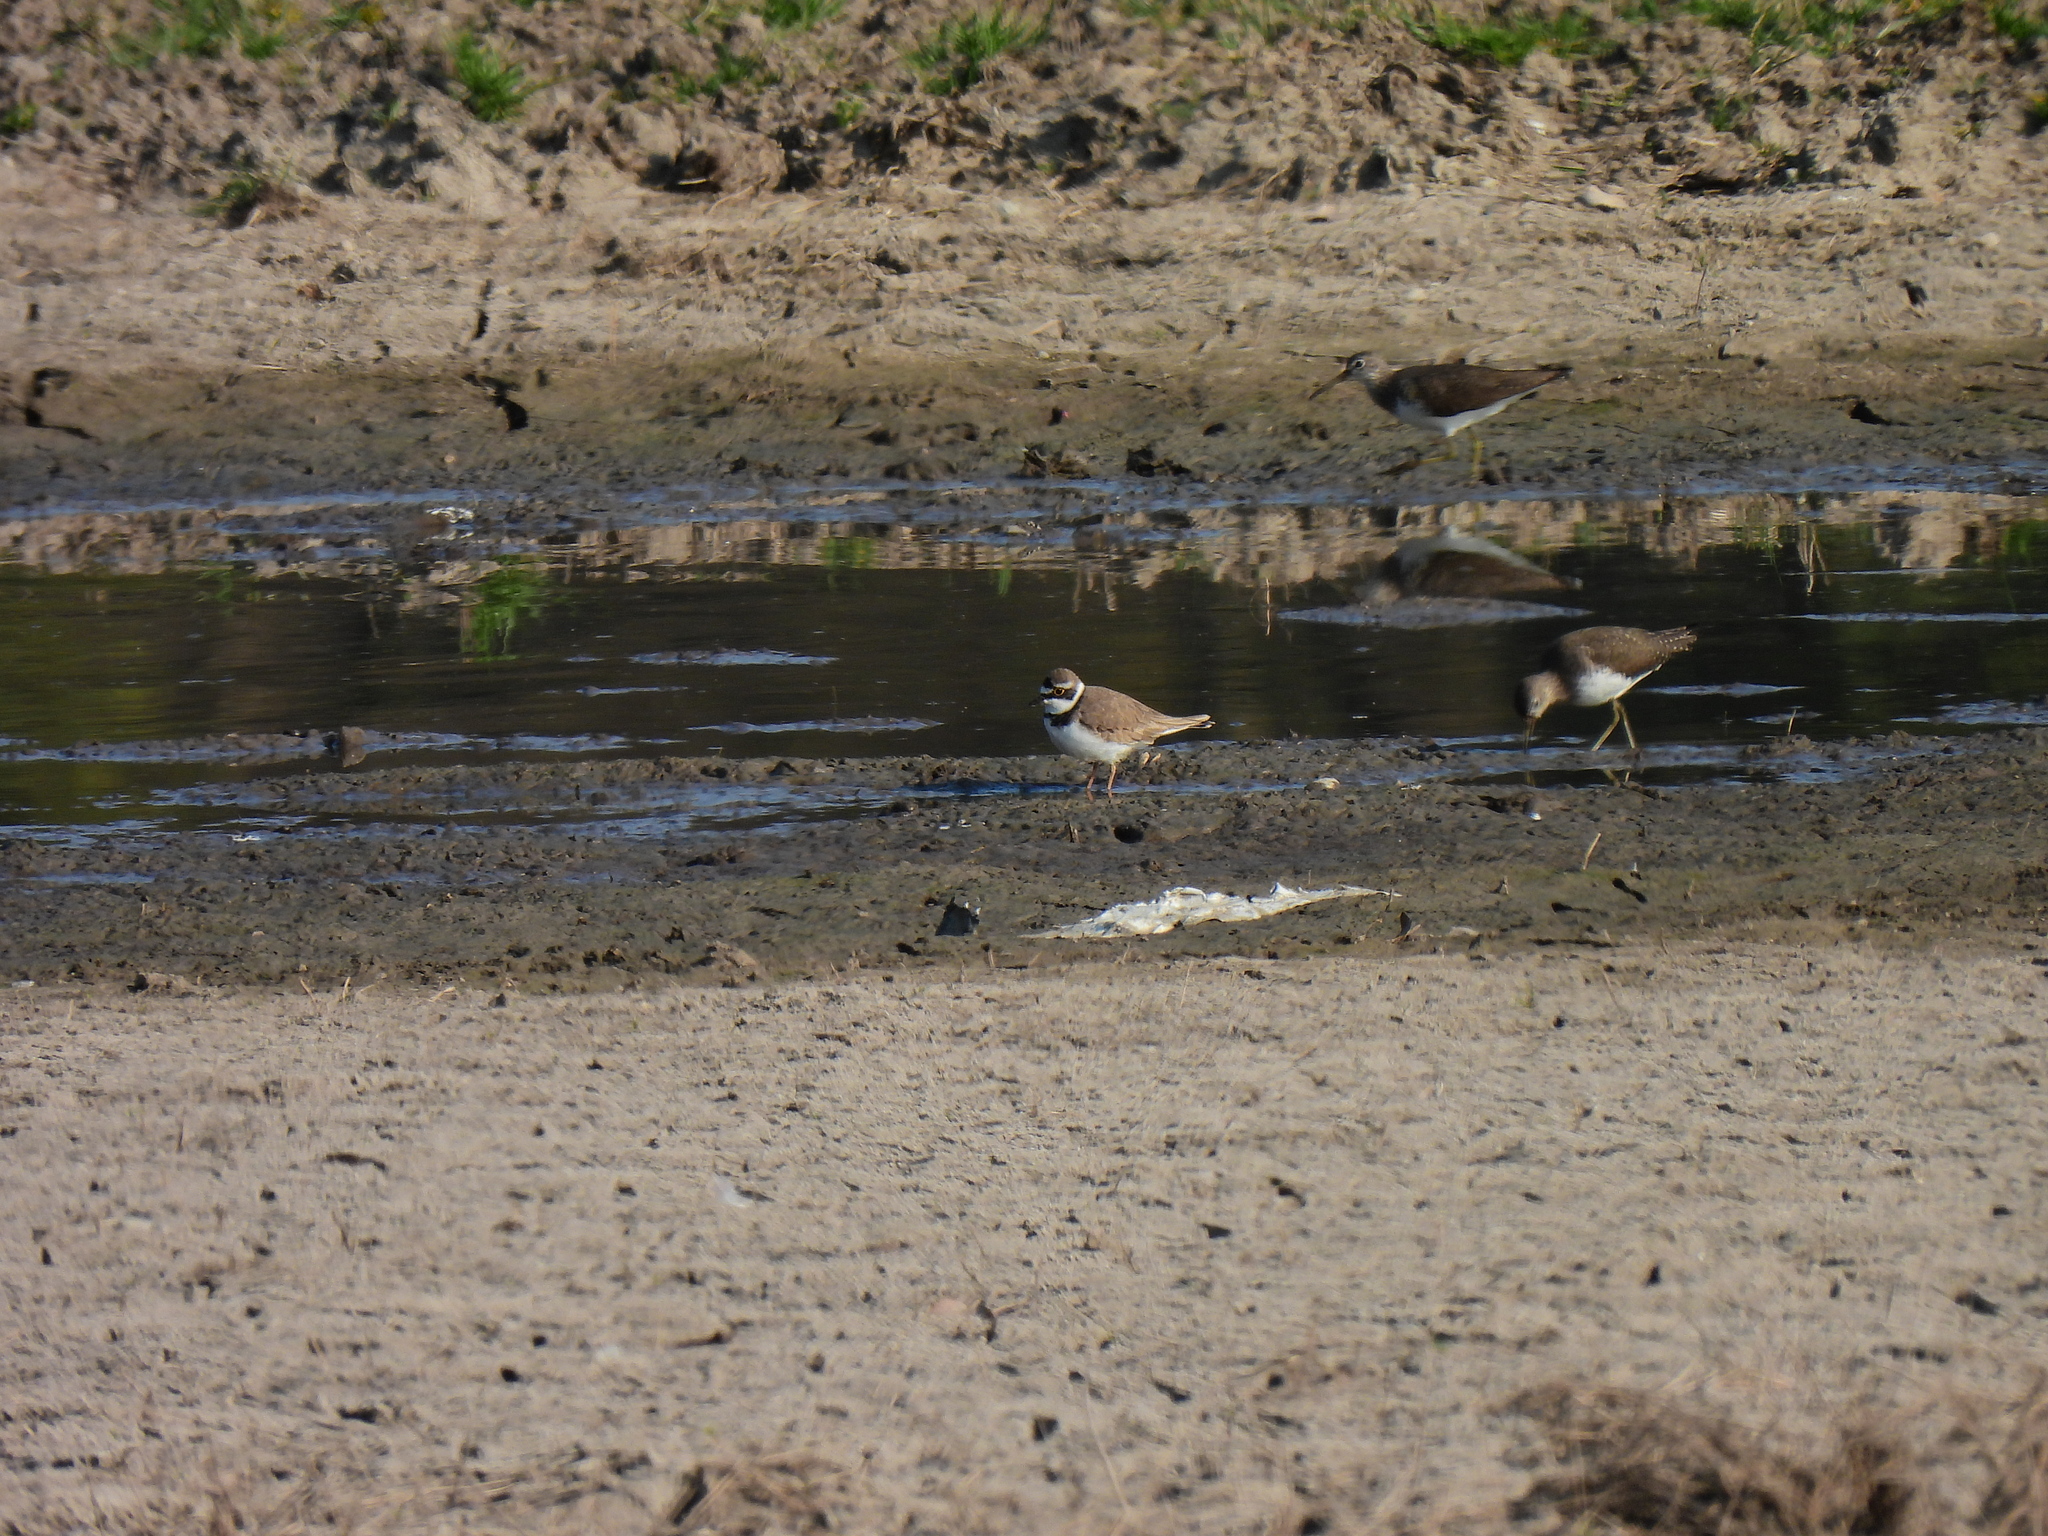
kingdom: Animalia
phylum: Chordata
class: Aves
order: Charadriiformes
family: Charadriidae
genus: Charadrius
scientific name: Charadrius dubius
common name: Little ringed plover
